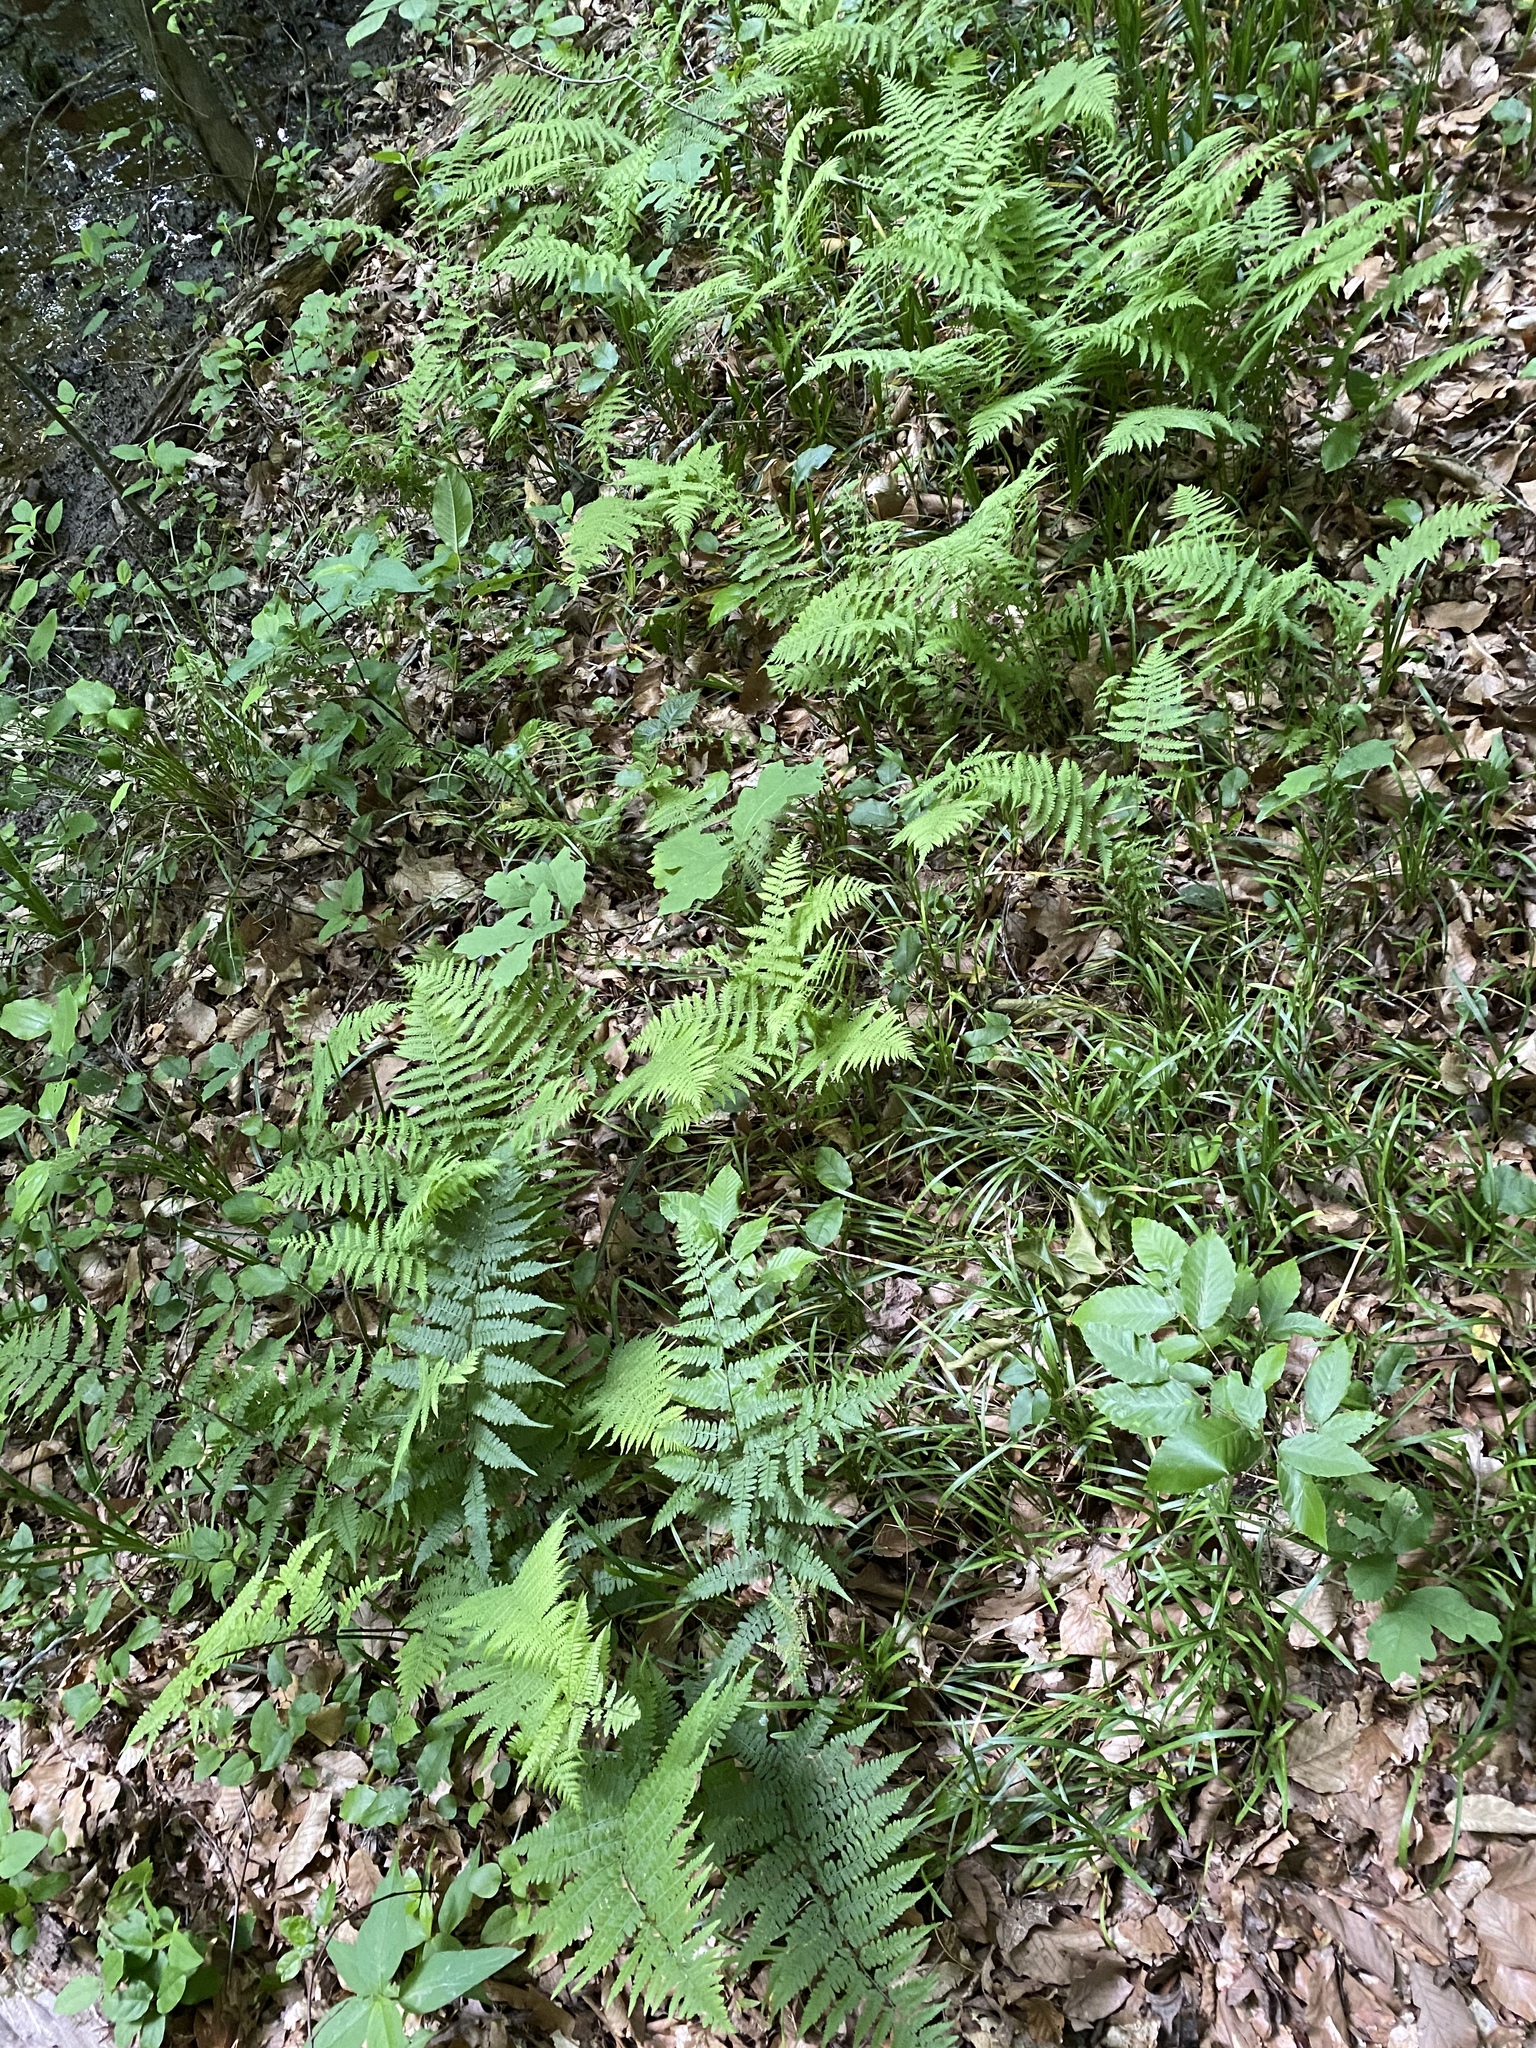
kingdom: Plantae
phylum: Tracheophyta
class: Polypodiopsida
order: Polypodiales
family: Thelypteridaceae
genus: Amauropelta
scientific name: Amauropelta noveboracensis
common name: New york fern
